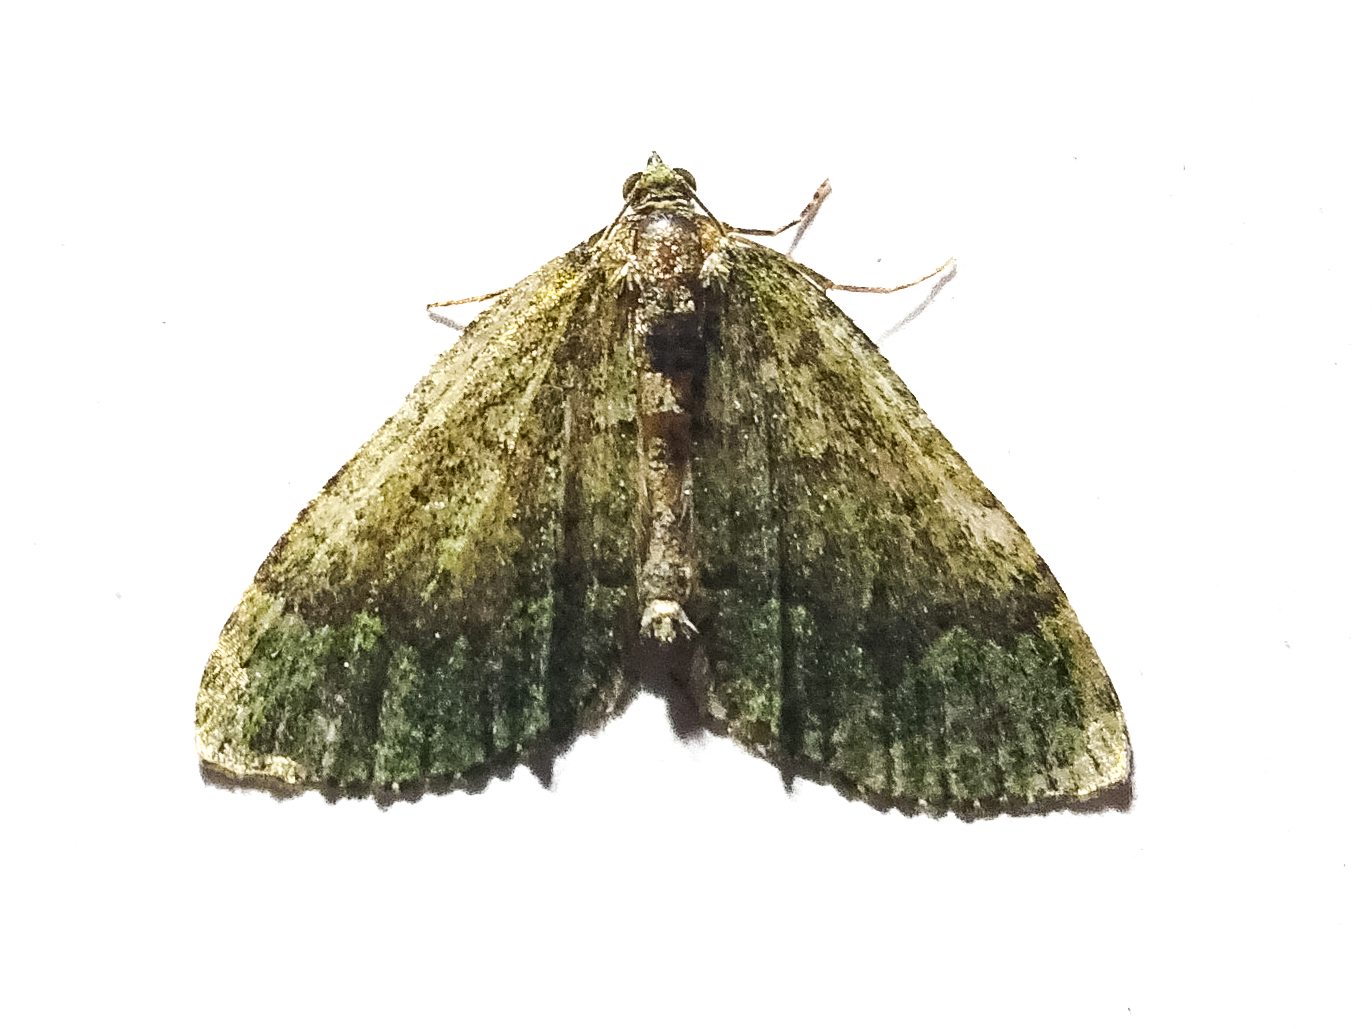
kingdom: Animalia
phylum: Arthropoda
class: Insecta
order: Lepidoptera
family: Geometridae
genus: Austrocidaria
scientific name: Austrocidaria callichlora
